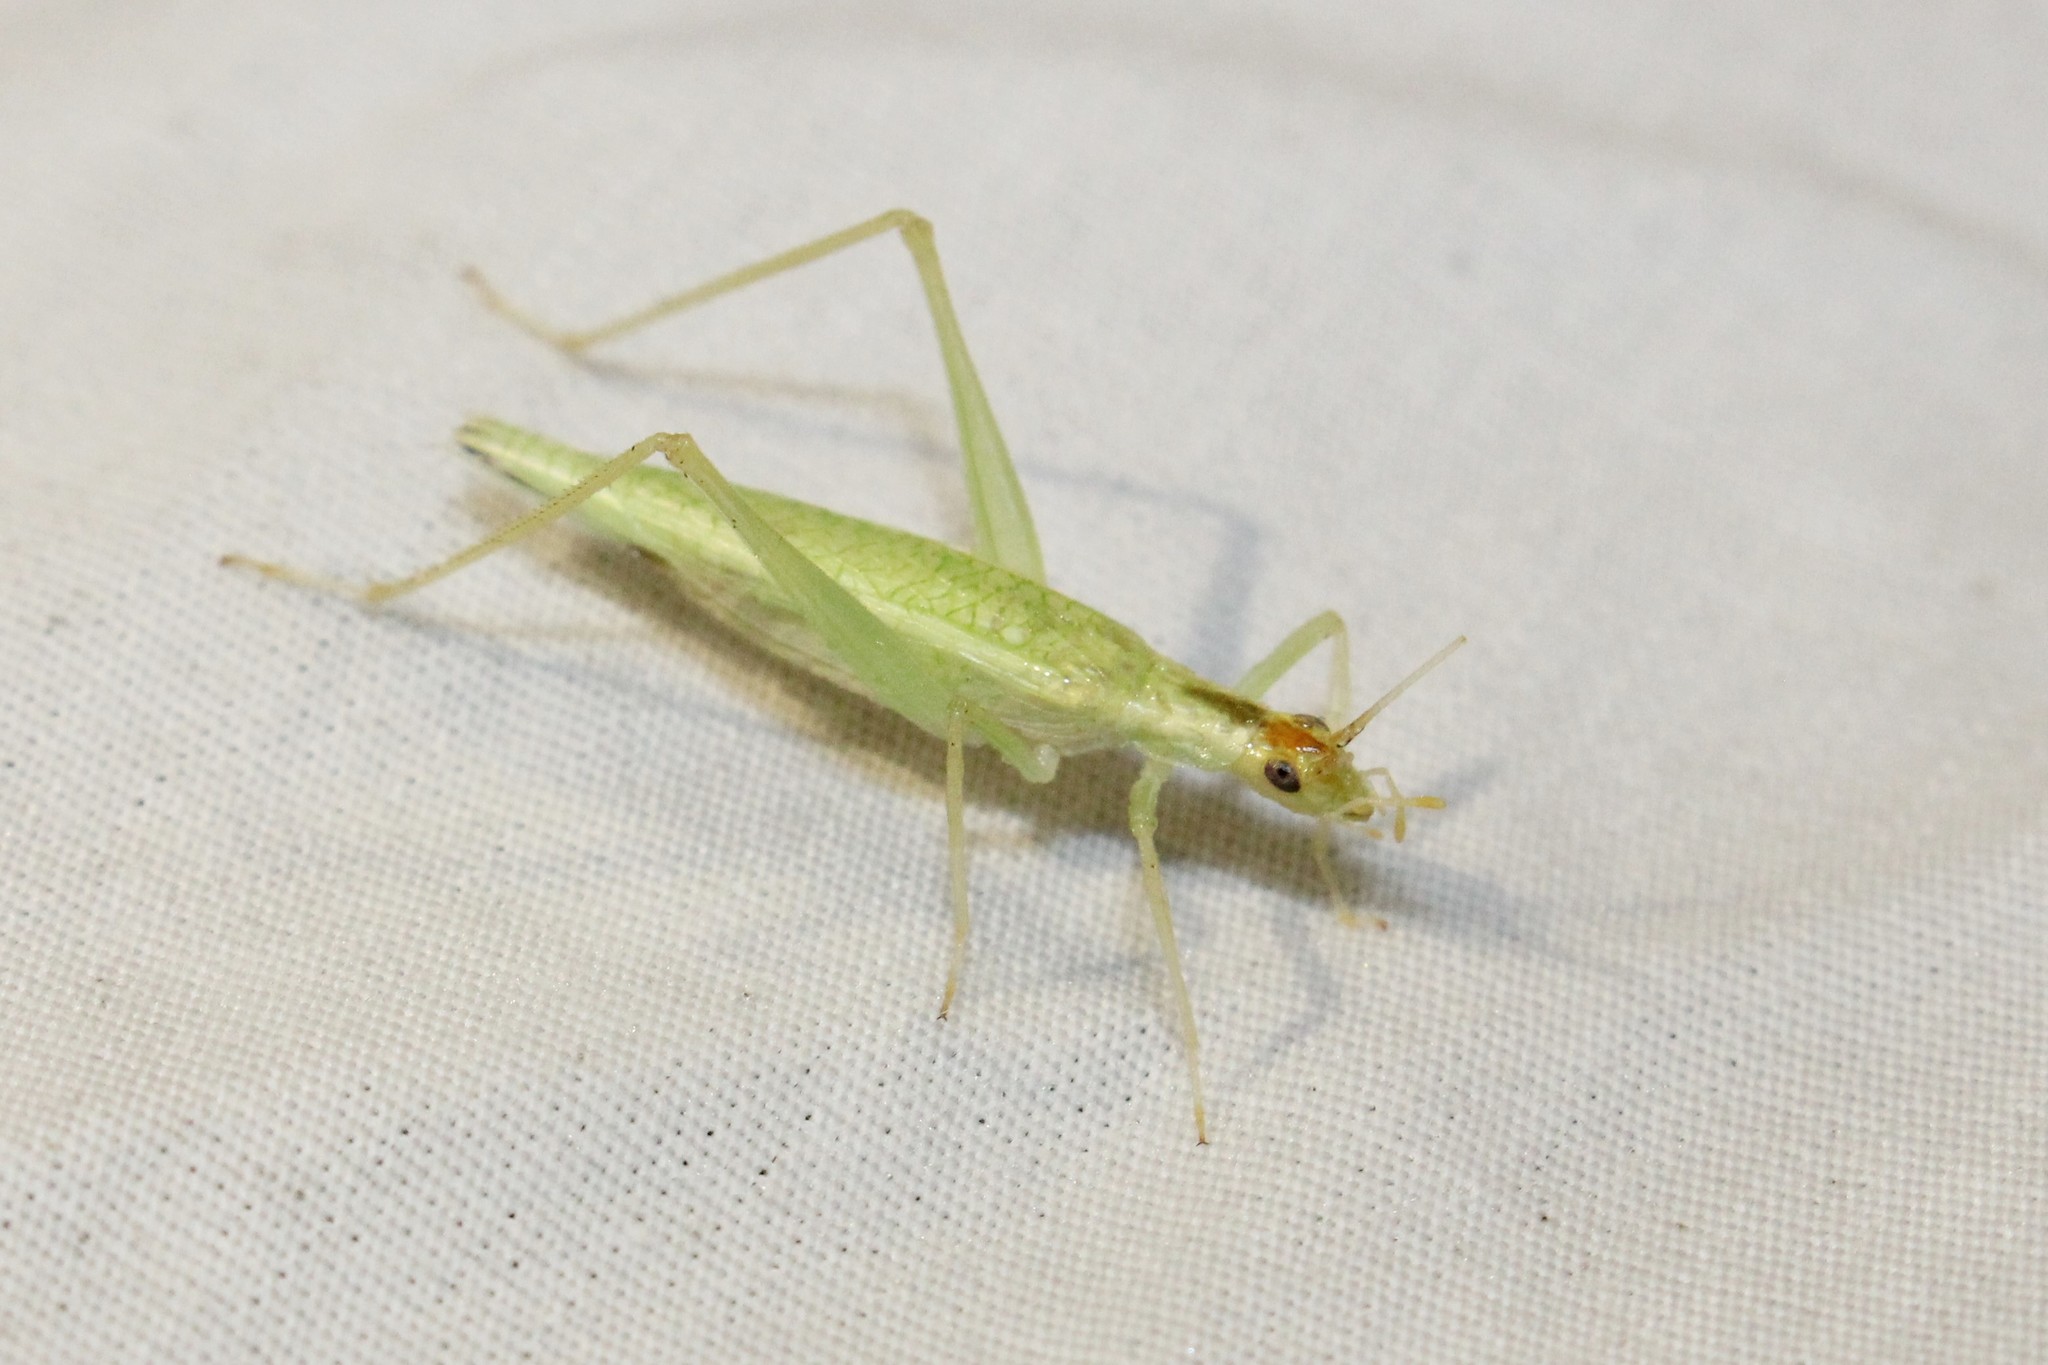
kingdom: Animalia
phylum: Arthropoda
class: Insecta
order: Orthoptera
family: Gryllidae
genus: Oecanthus
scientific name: Oecanthus niveus
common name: Narrow-winged tree cricket
